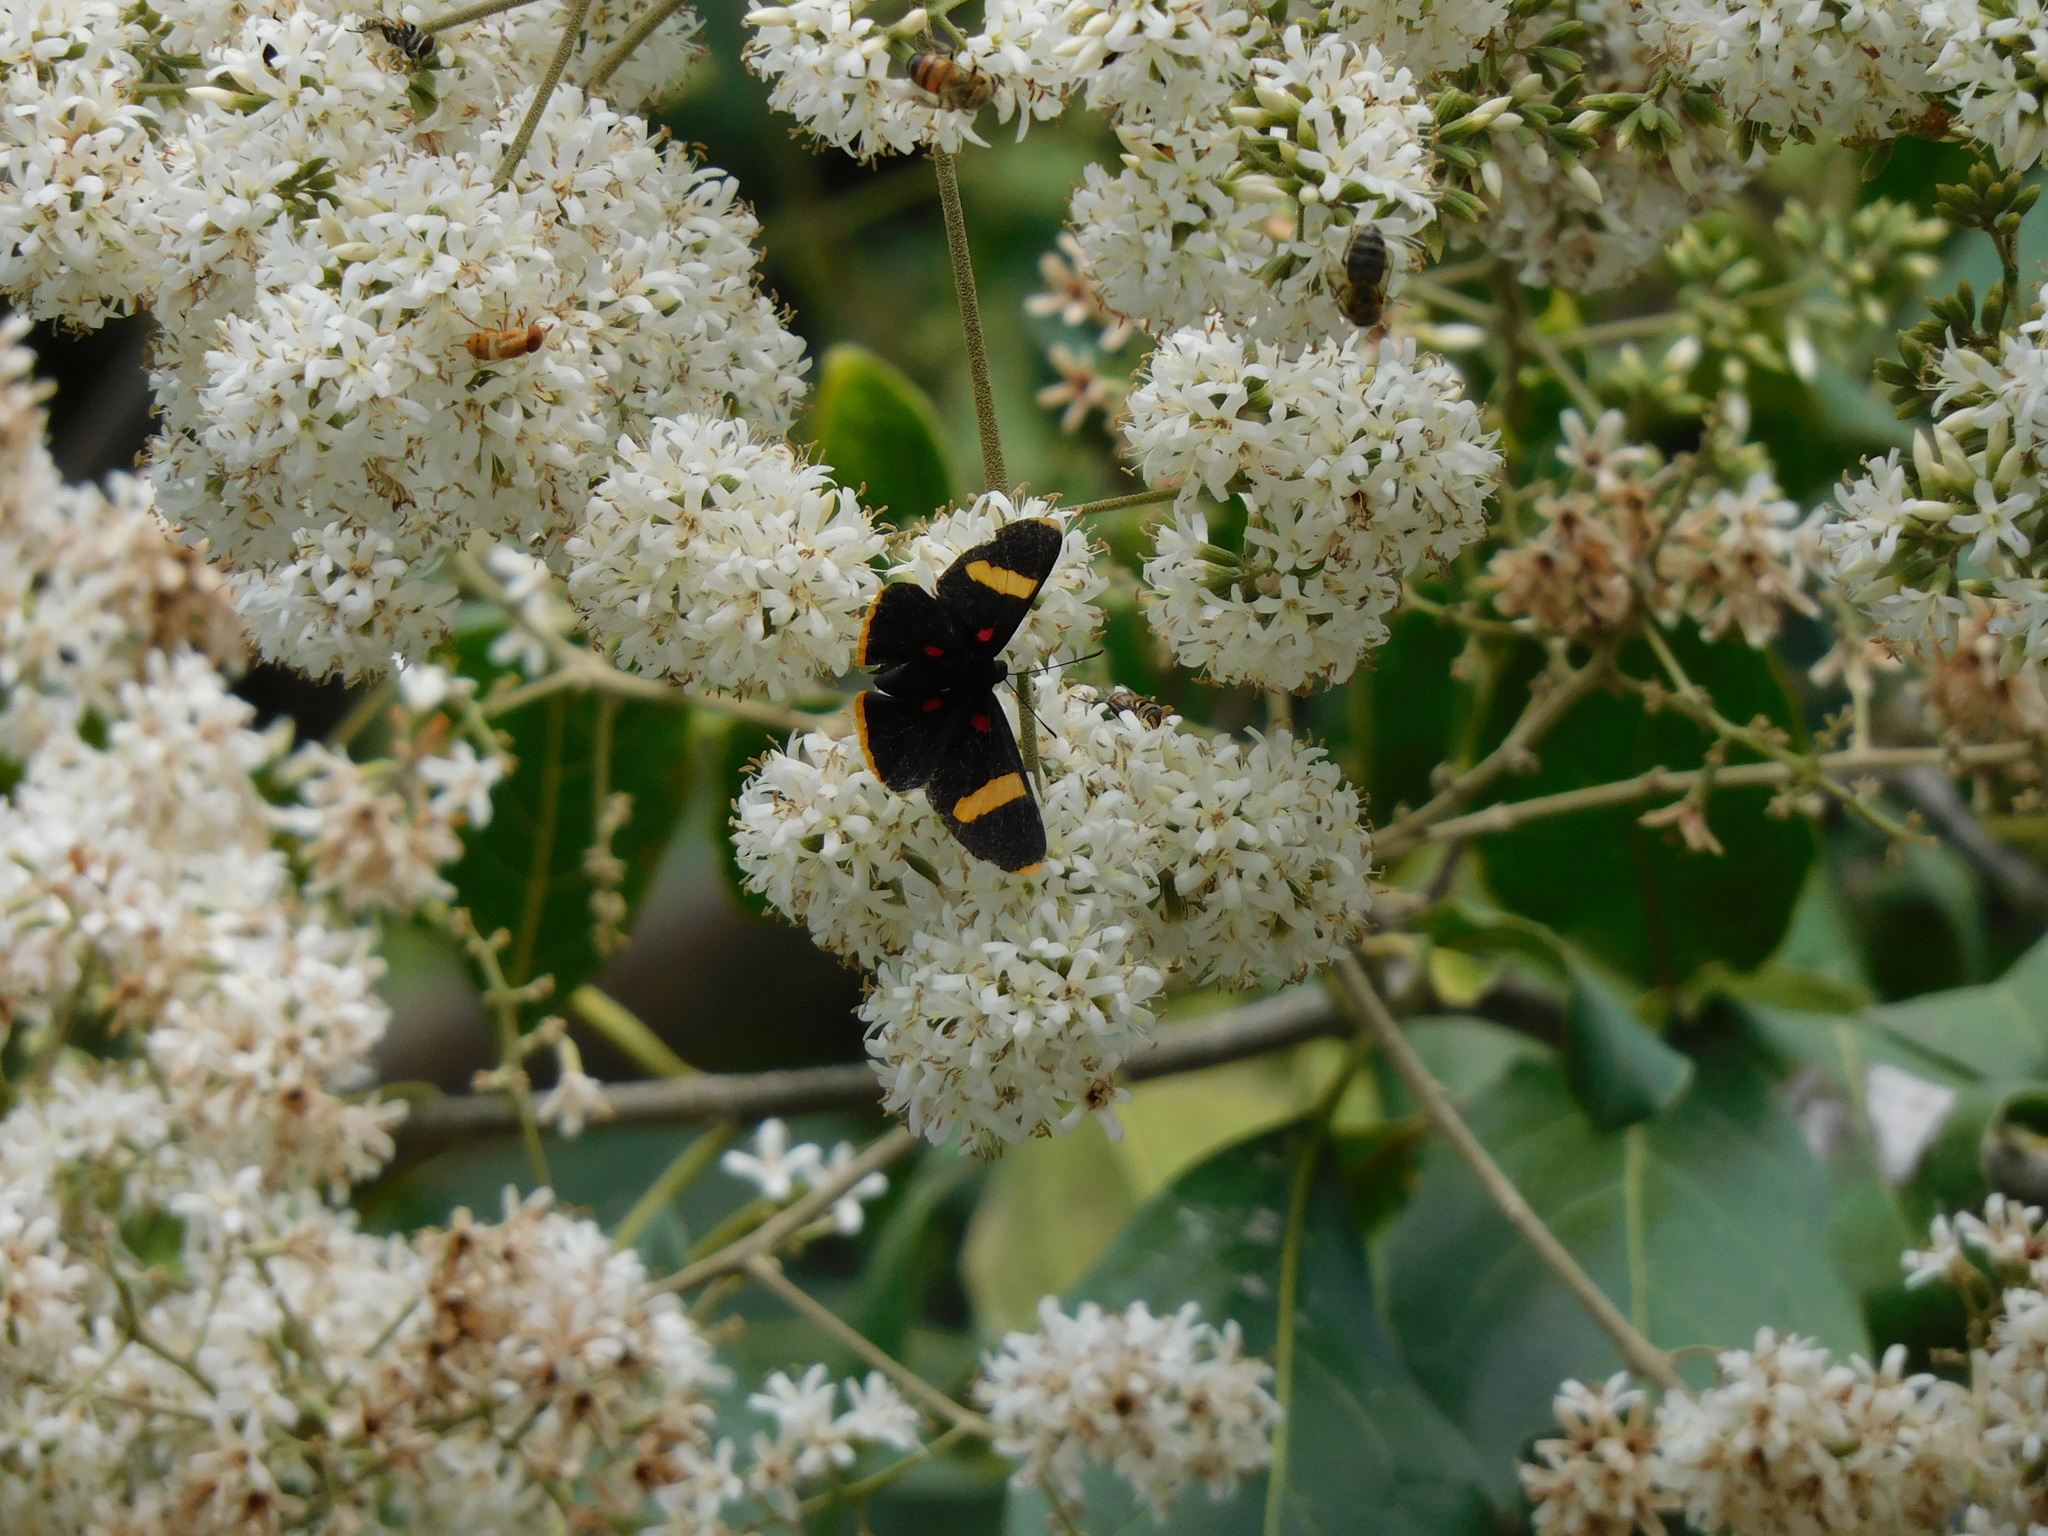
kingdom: Animalia
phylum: Arthropoda
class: Insecta
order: Lepidoptera
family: Lycaenidae
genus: Melanis
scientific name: Melanis electron
